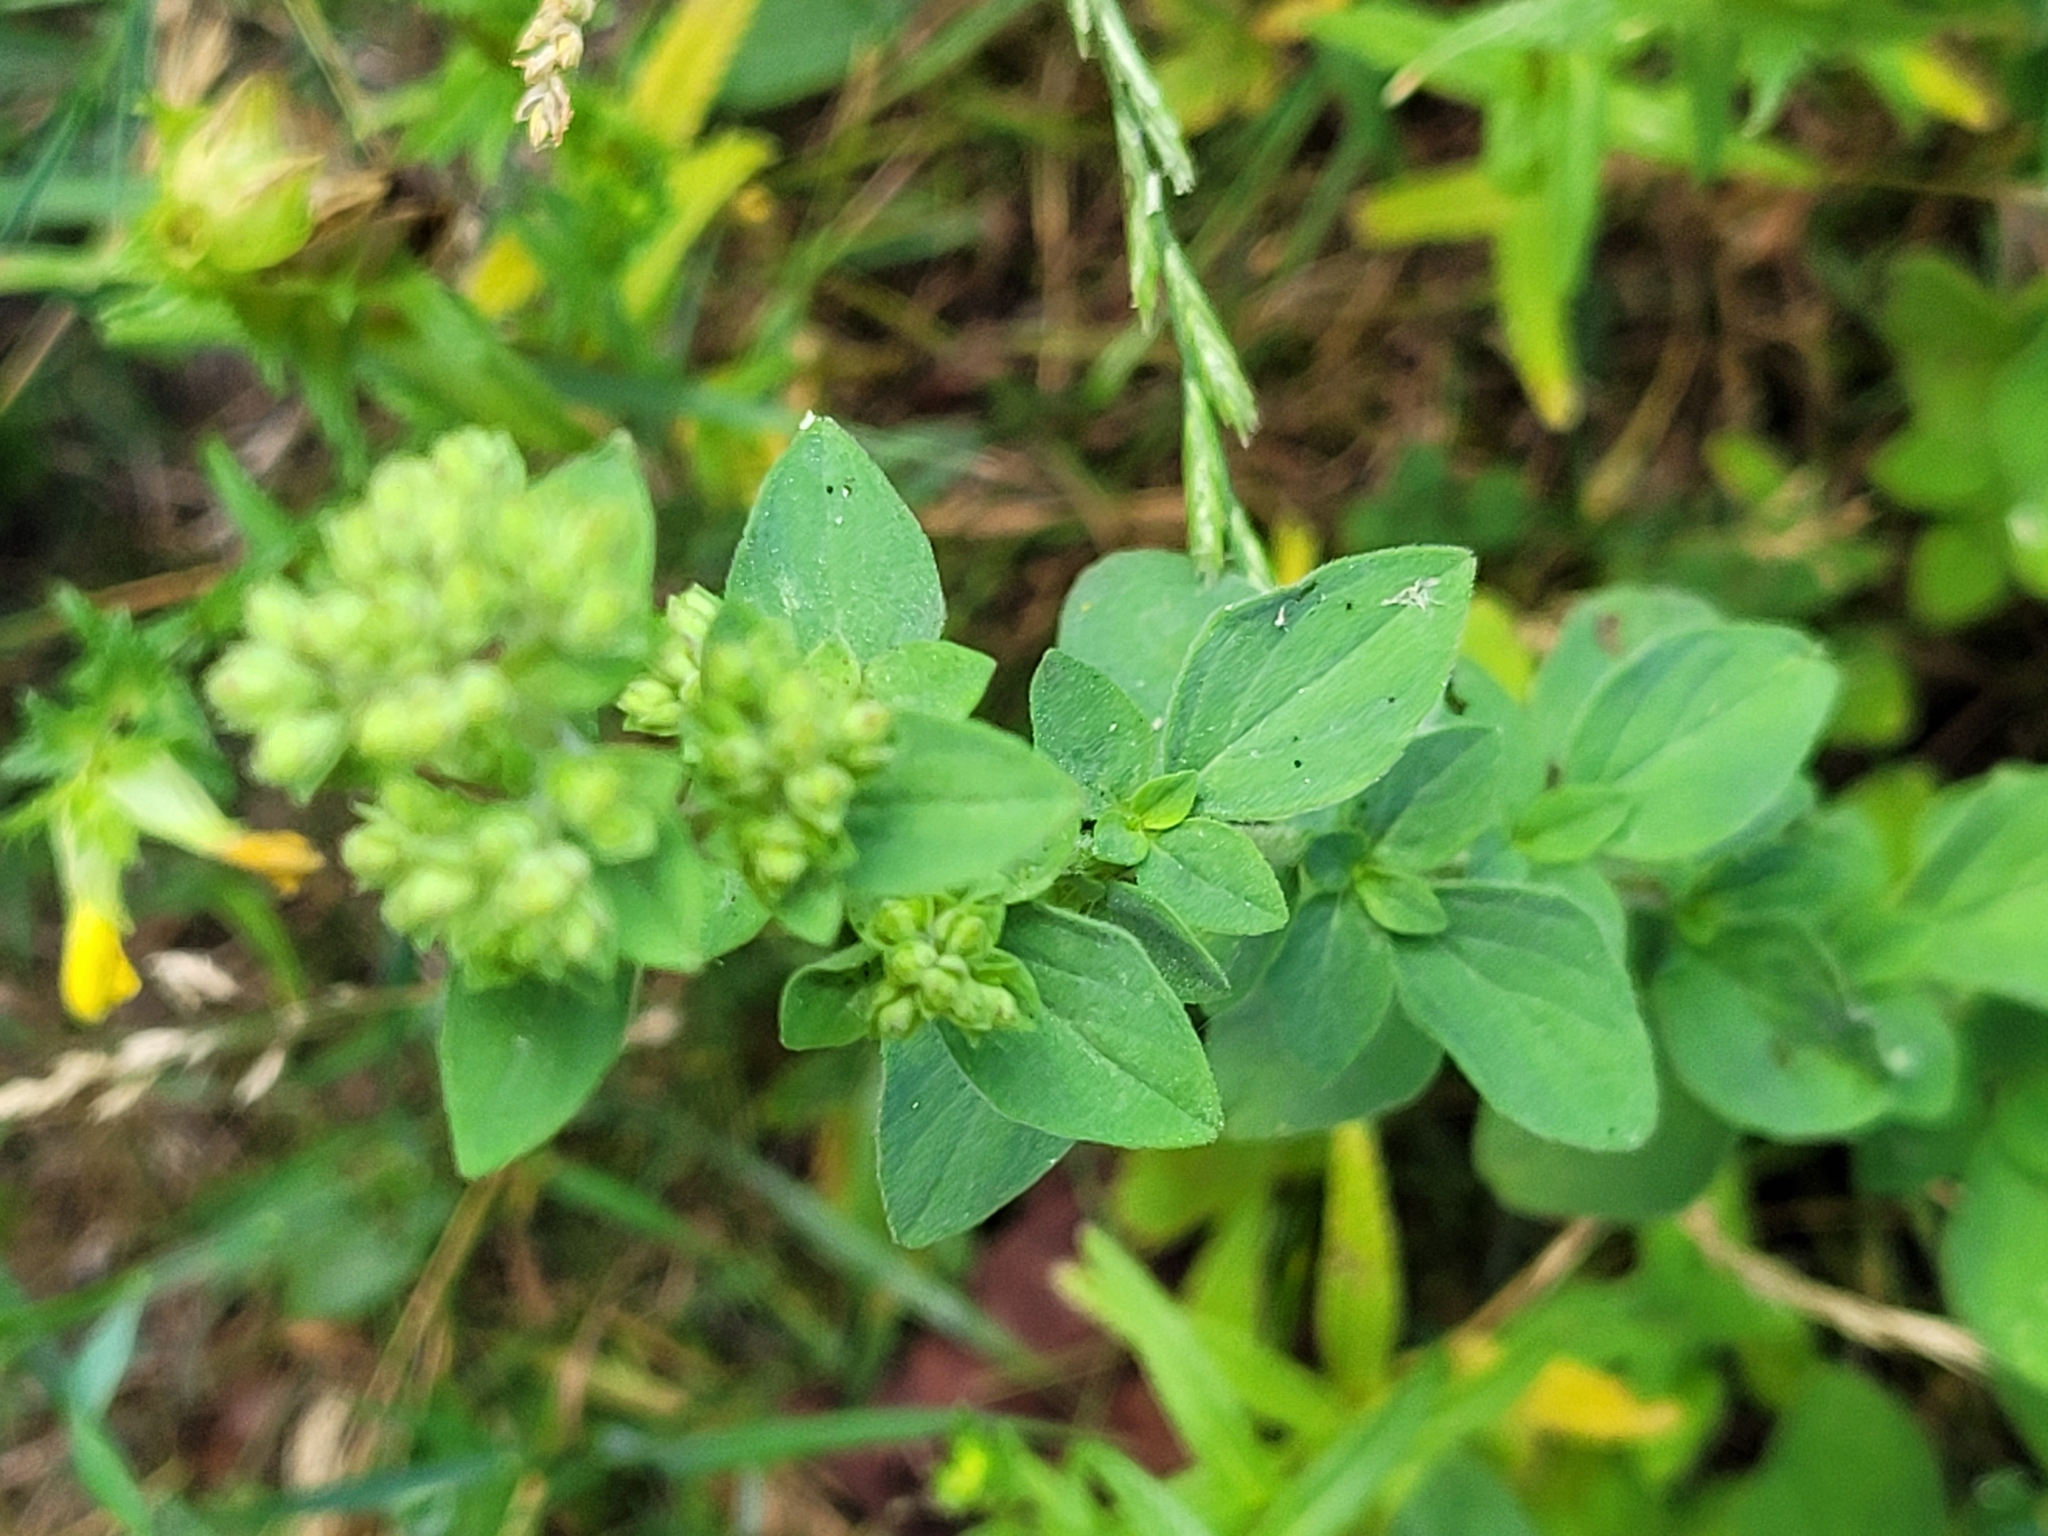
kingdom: Plantae
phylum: Tracheophyta
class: Magnoliopsida
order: Lamiales
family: Lamiaceae
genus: Origanum
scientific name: Origanum vulgare
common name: Wild marjoram
